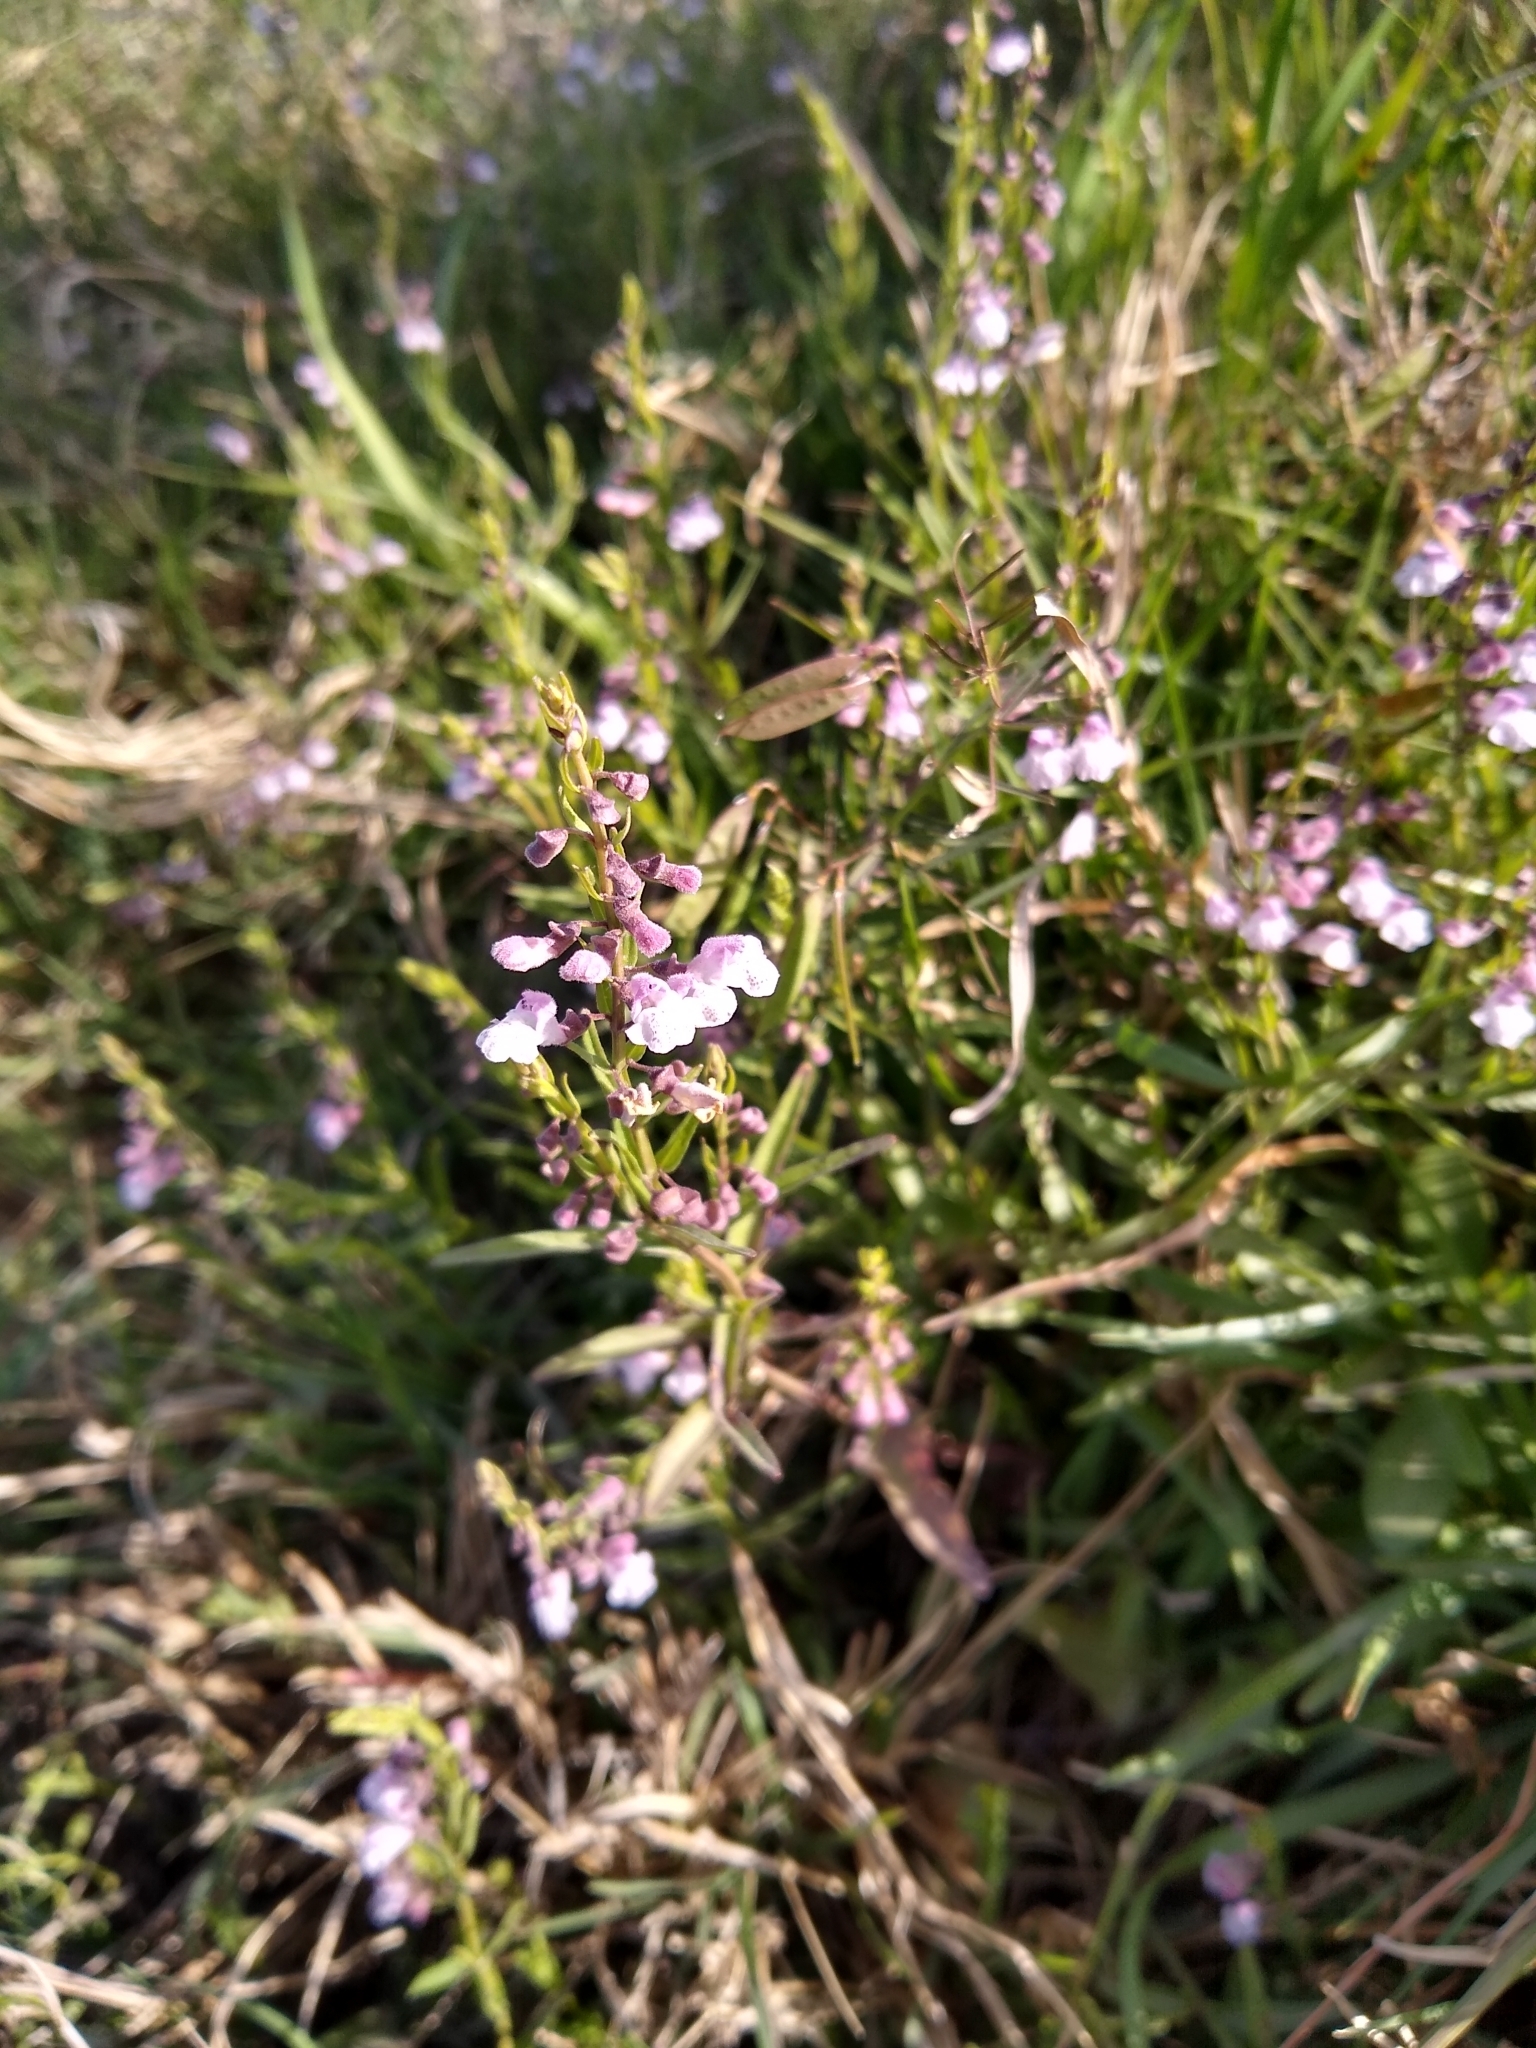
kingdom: Plantae
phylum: Tracheophyta
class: Magnoliopsida
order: Lamiales
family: Lamiaceae
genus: Scutellaria
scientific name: Scutellaria racemosa
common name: South american skullcap
